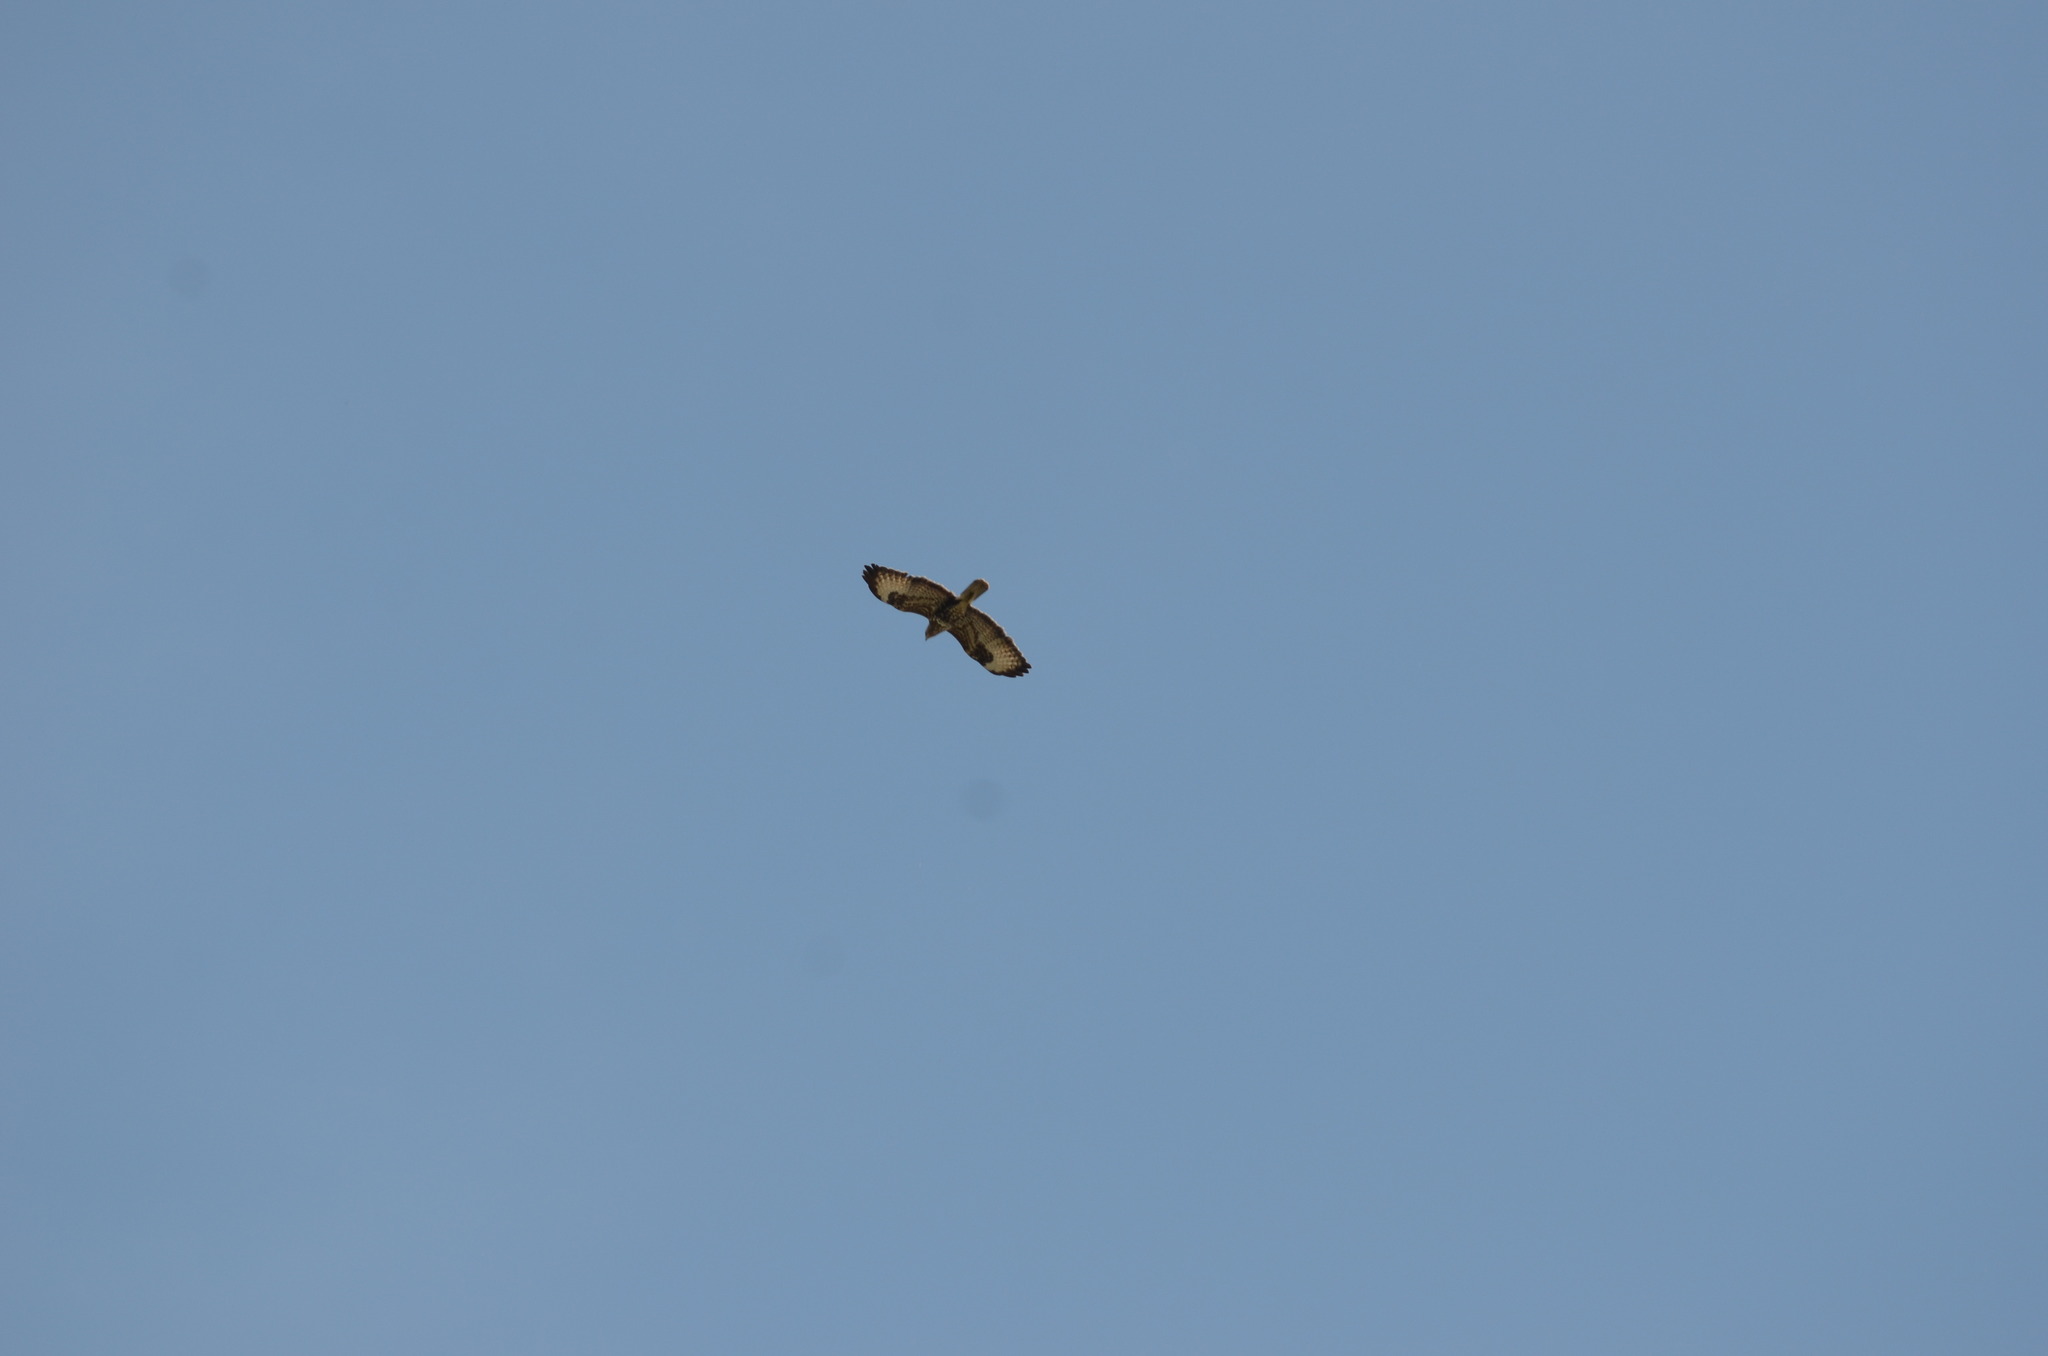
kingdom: Animalia
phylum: Chordata
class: Aves
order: Accipitriformes
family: Accipitridae
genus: Buteo
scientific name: Buteo buteo
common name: Common buzzard
